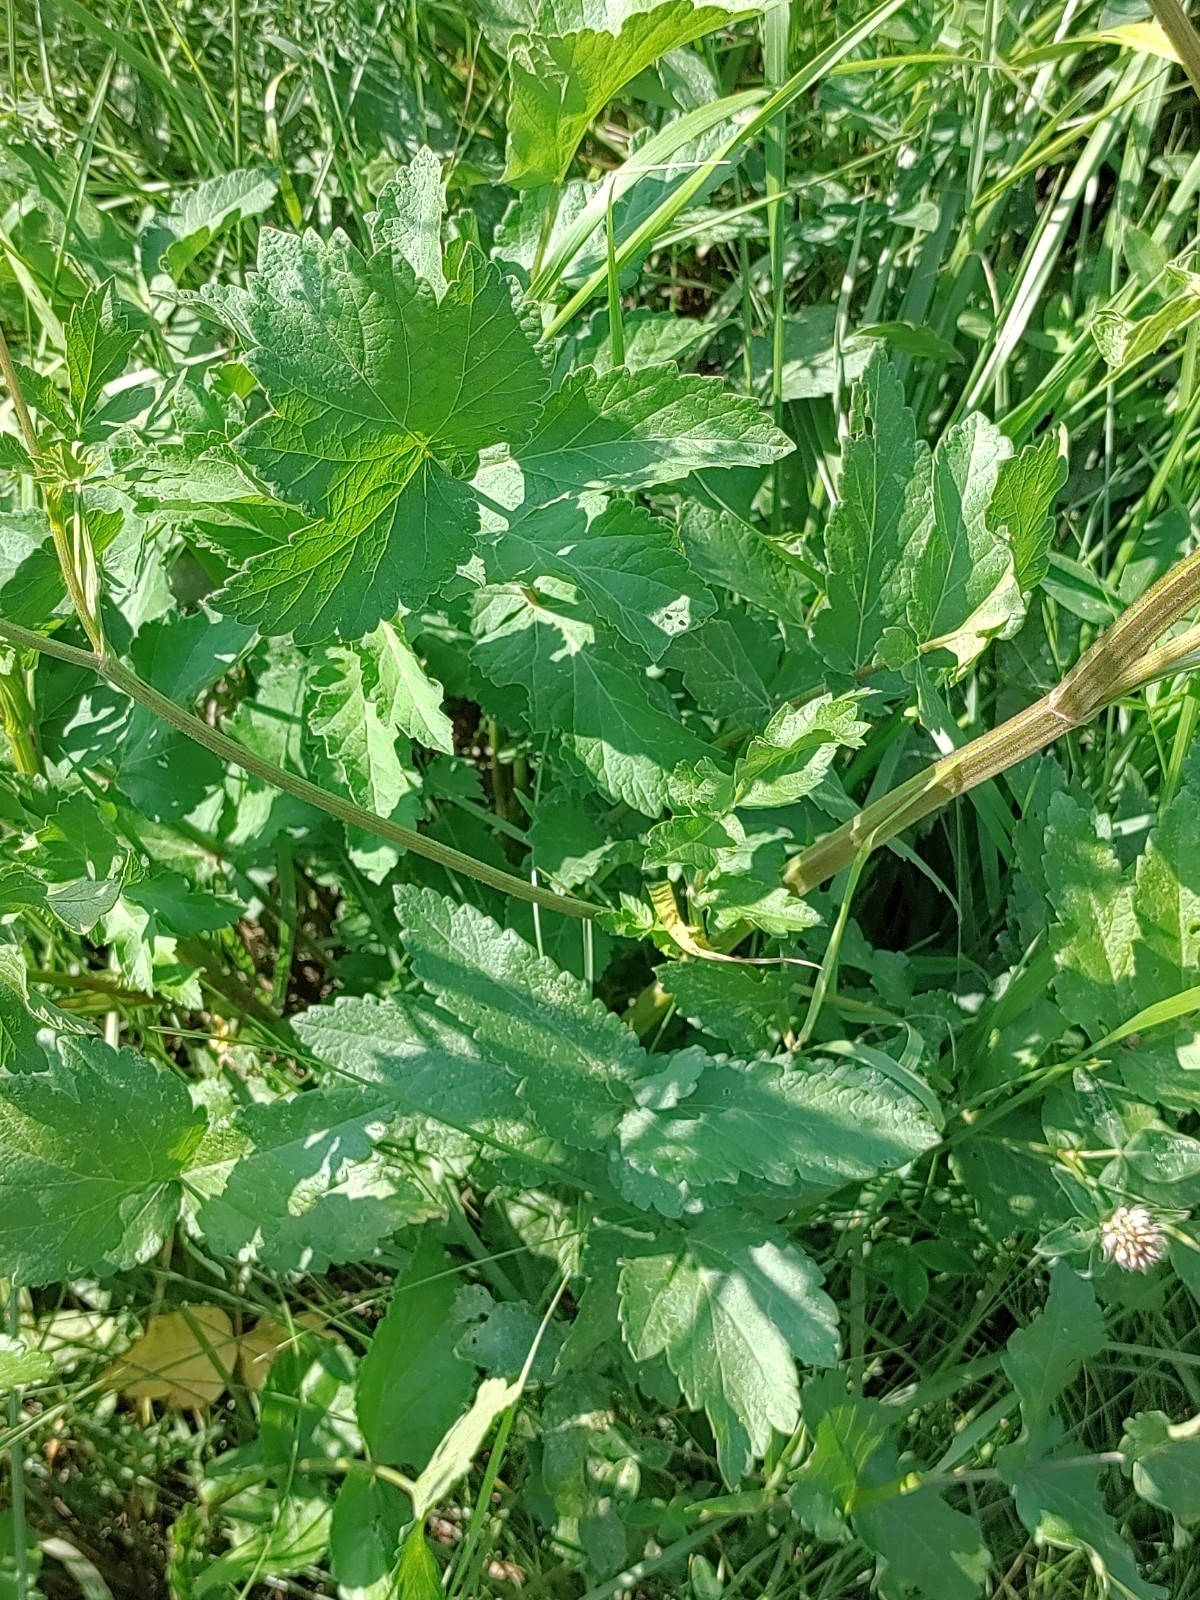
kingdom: Plantae
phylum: Tracheophyta
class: Magnoliopsida
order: Apiales
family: Apiaceae
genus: Pastinaca
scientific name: Pastinaca sativa
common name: Wild parsnip
